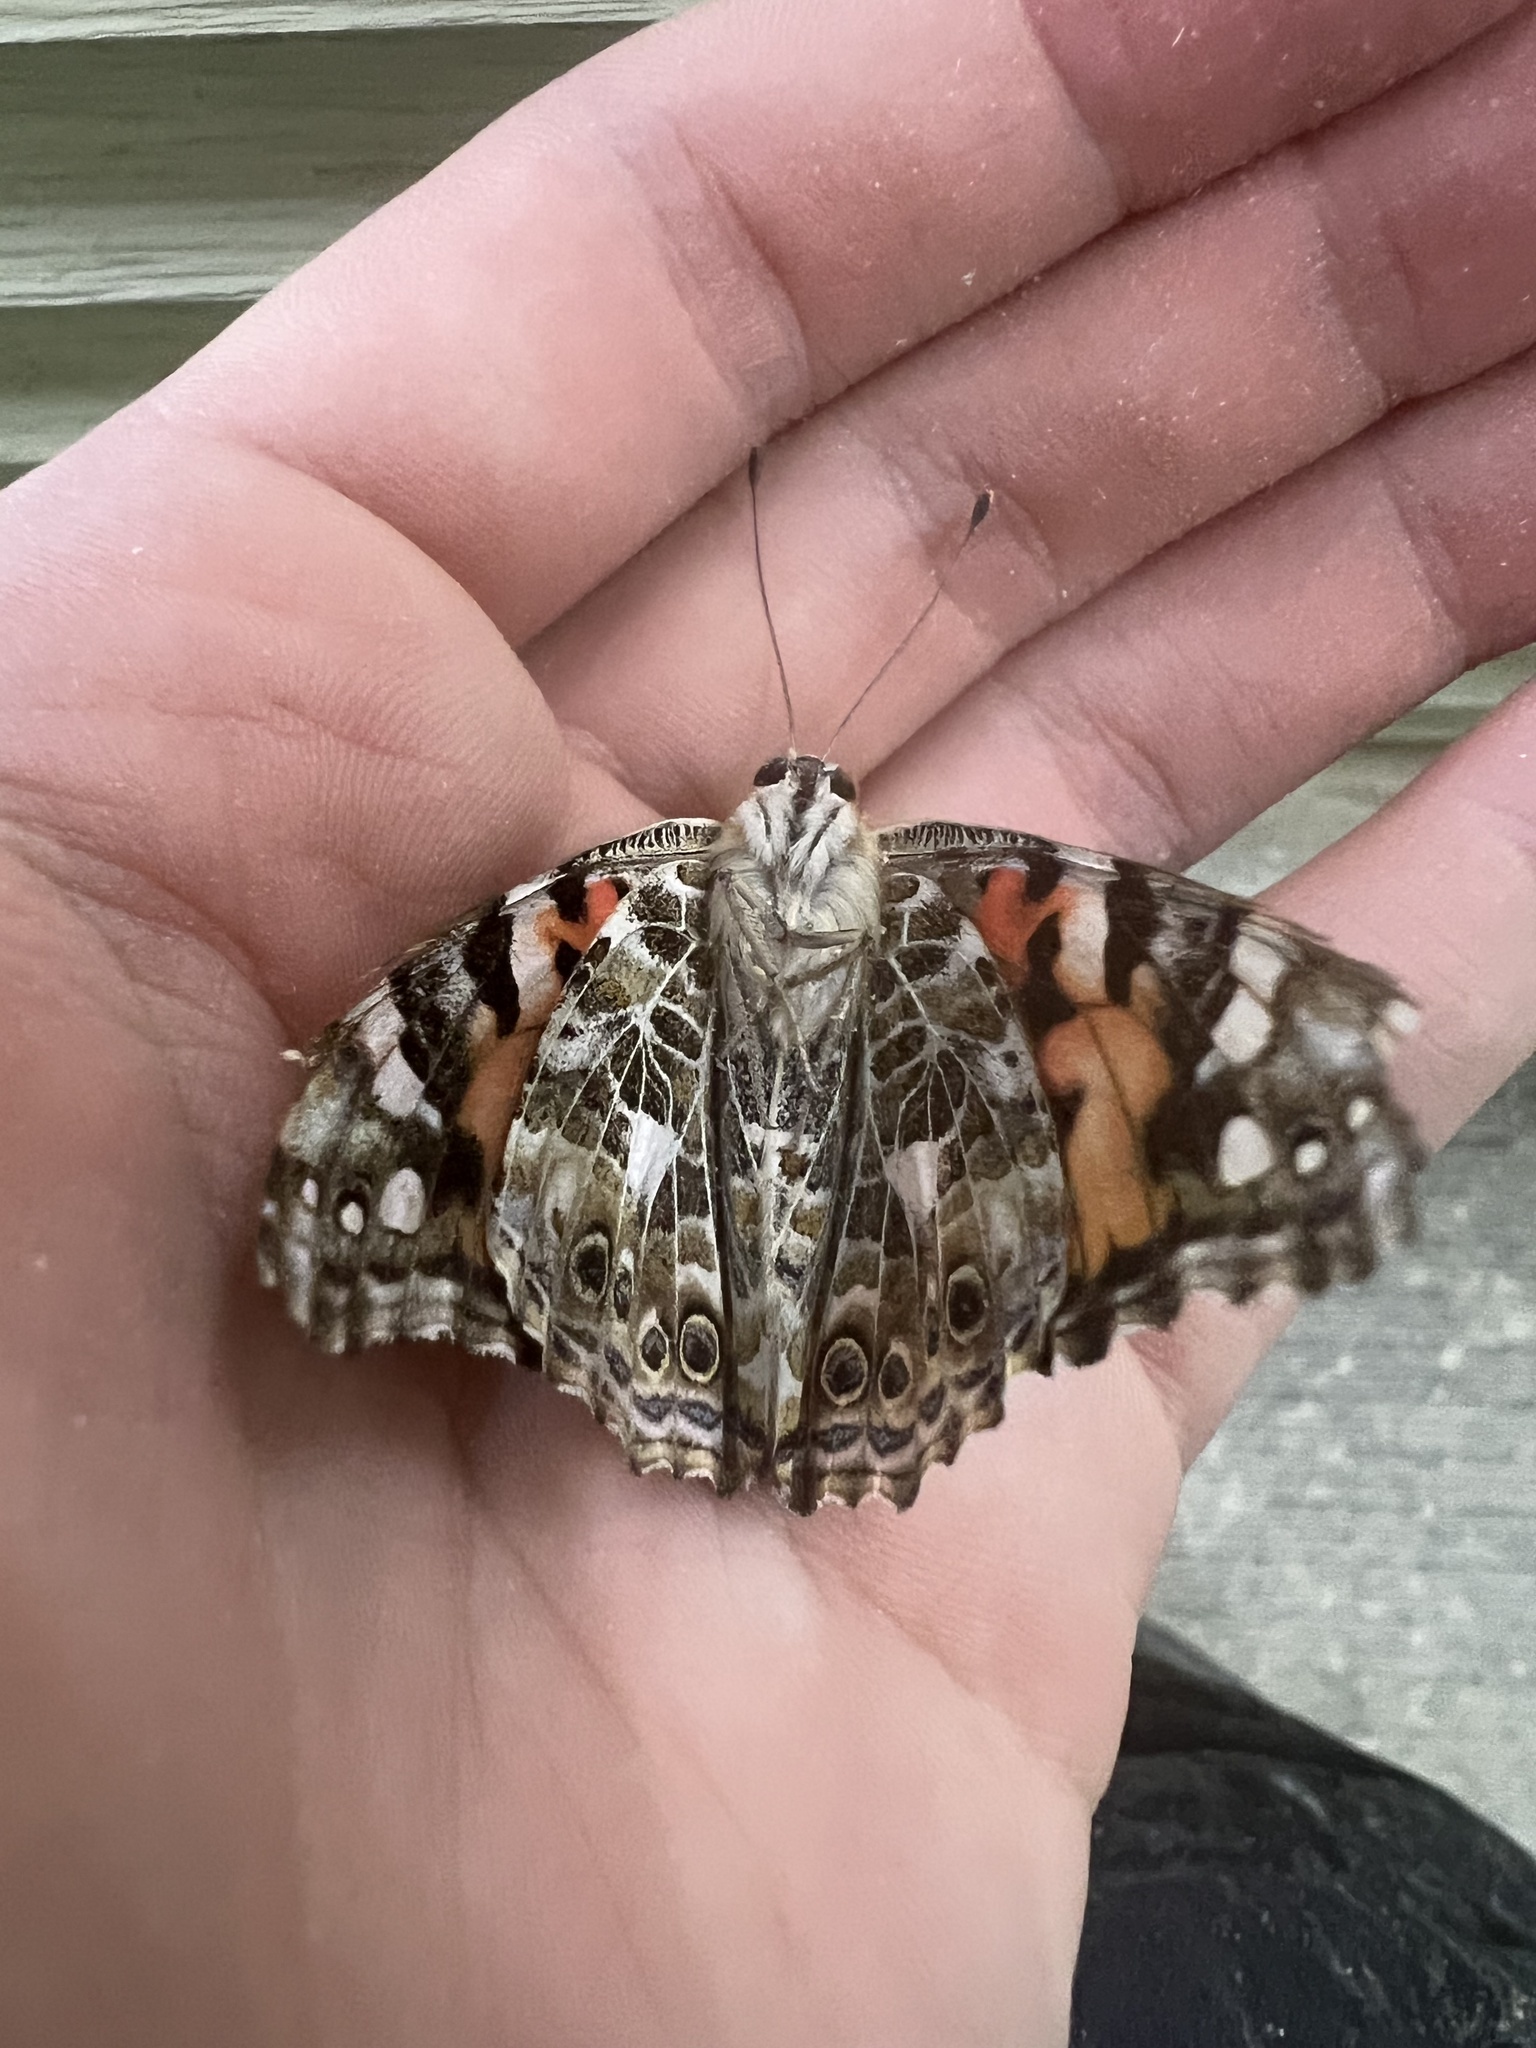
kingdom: Animalia
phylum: Arthropoda
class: Insecta
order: Lepidoptera
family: Nymphalidae
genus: Vanessa
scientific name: Vanessa cardui
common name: Painted lady
